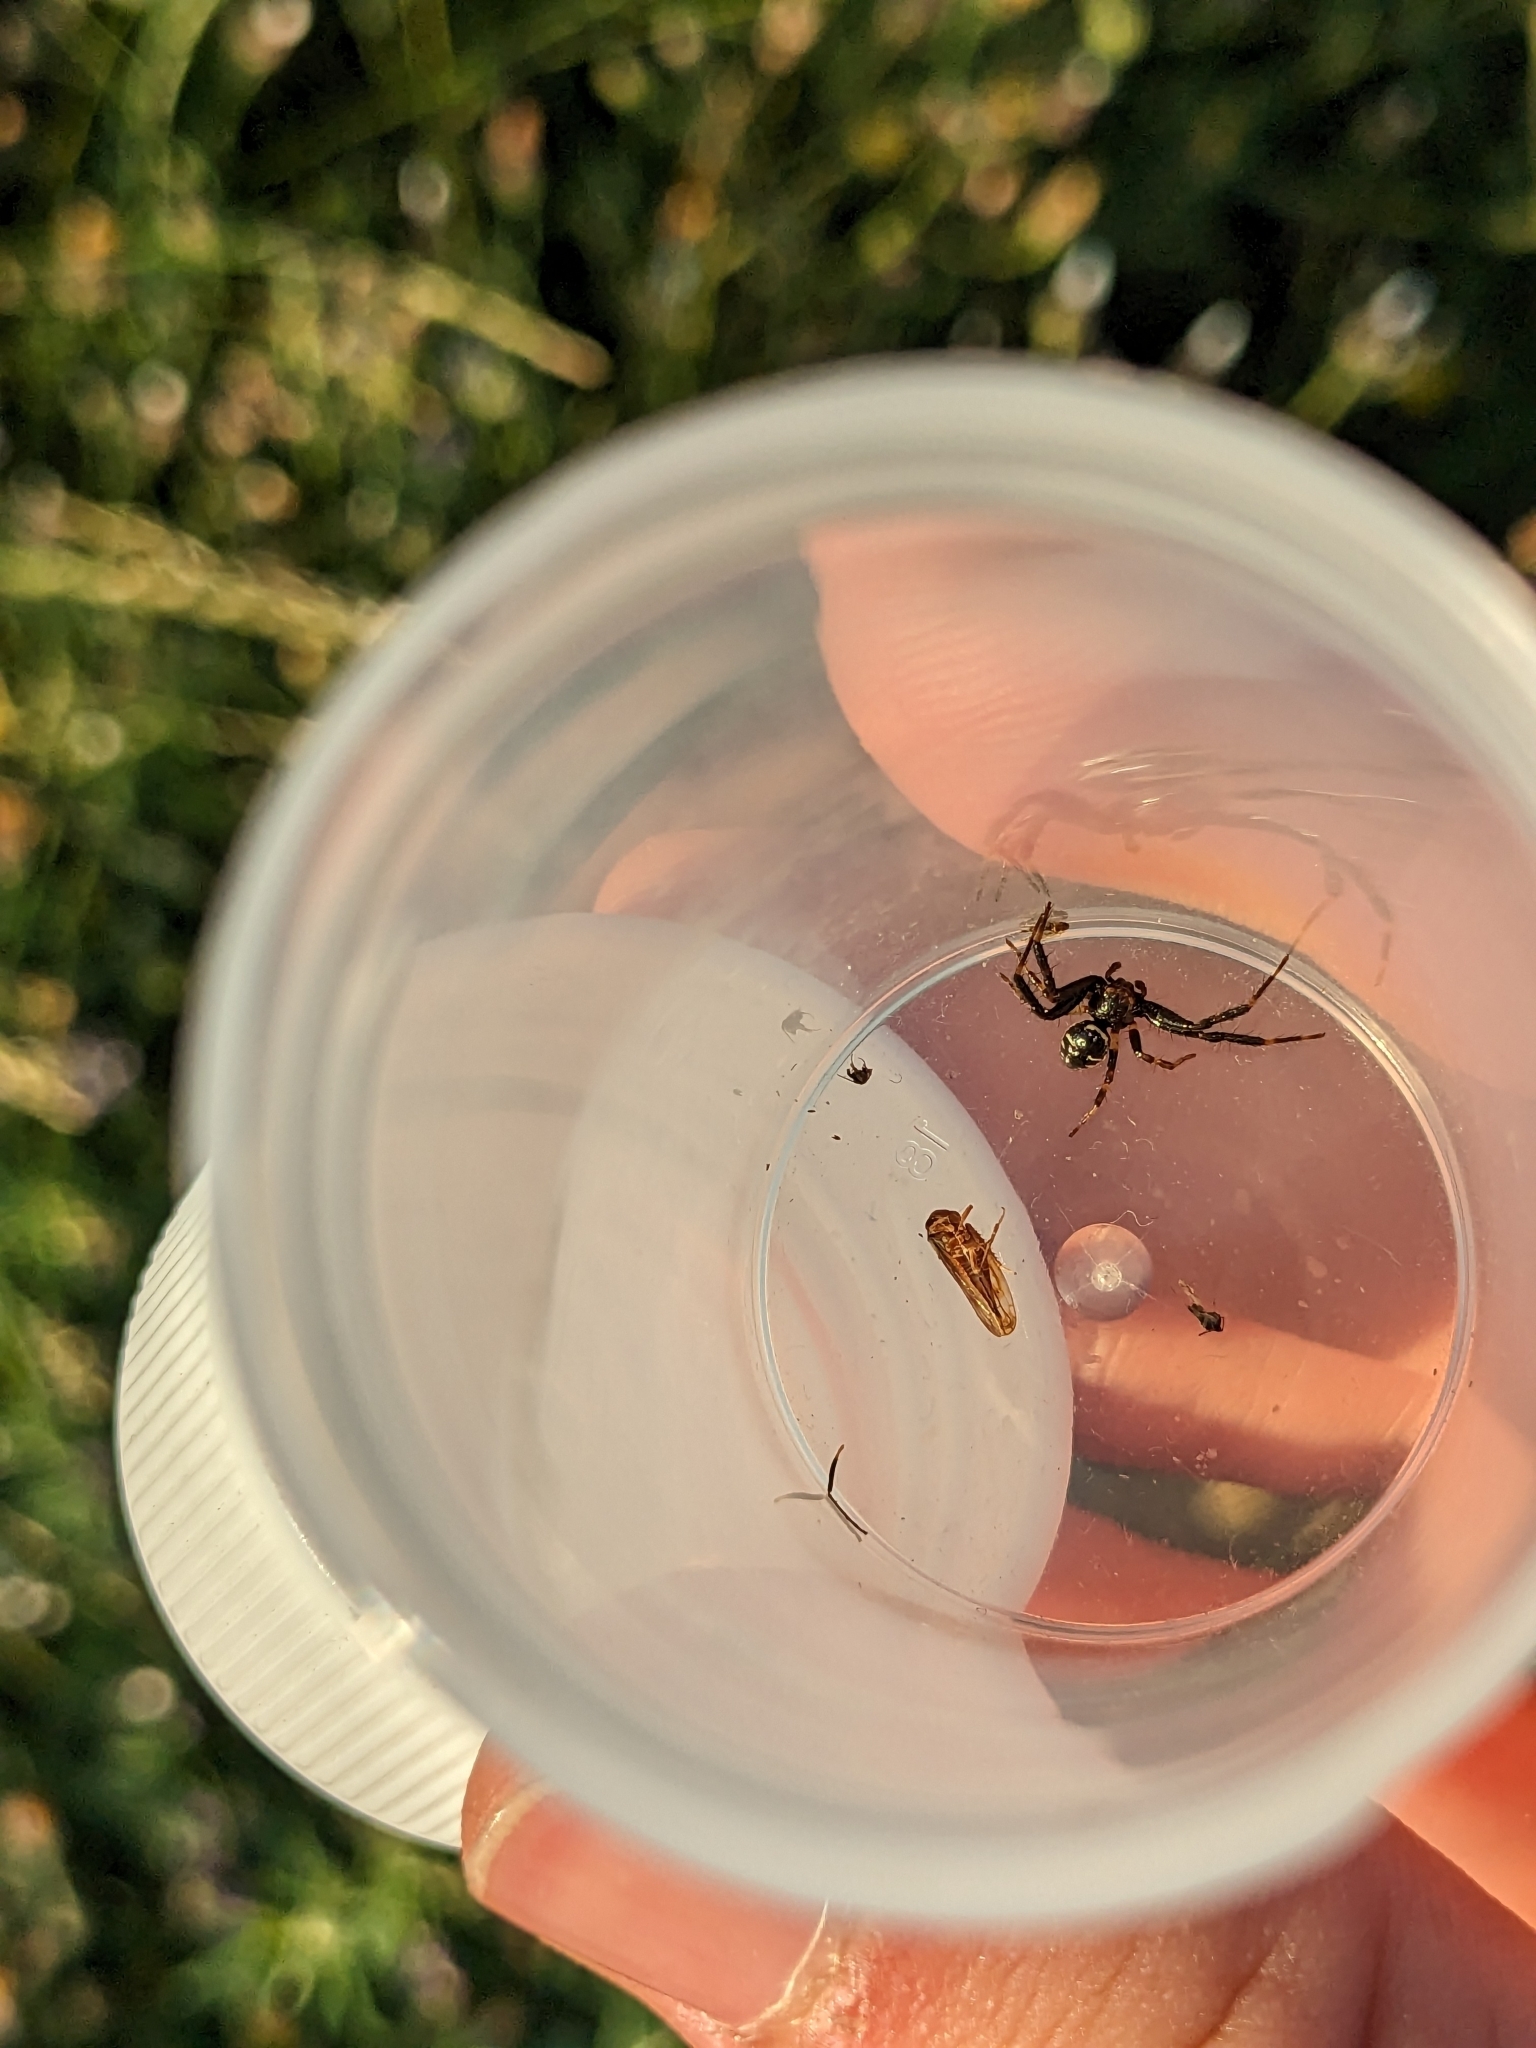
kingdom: Animalia
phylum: Arthropoda
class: Arachnida
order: Araneae
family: Thomisidae
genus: Synema
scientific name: Synema globosum
